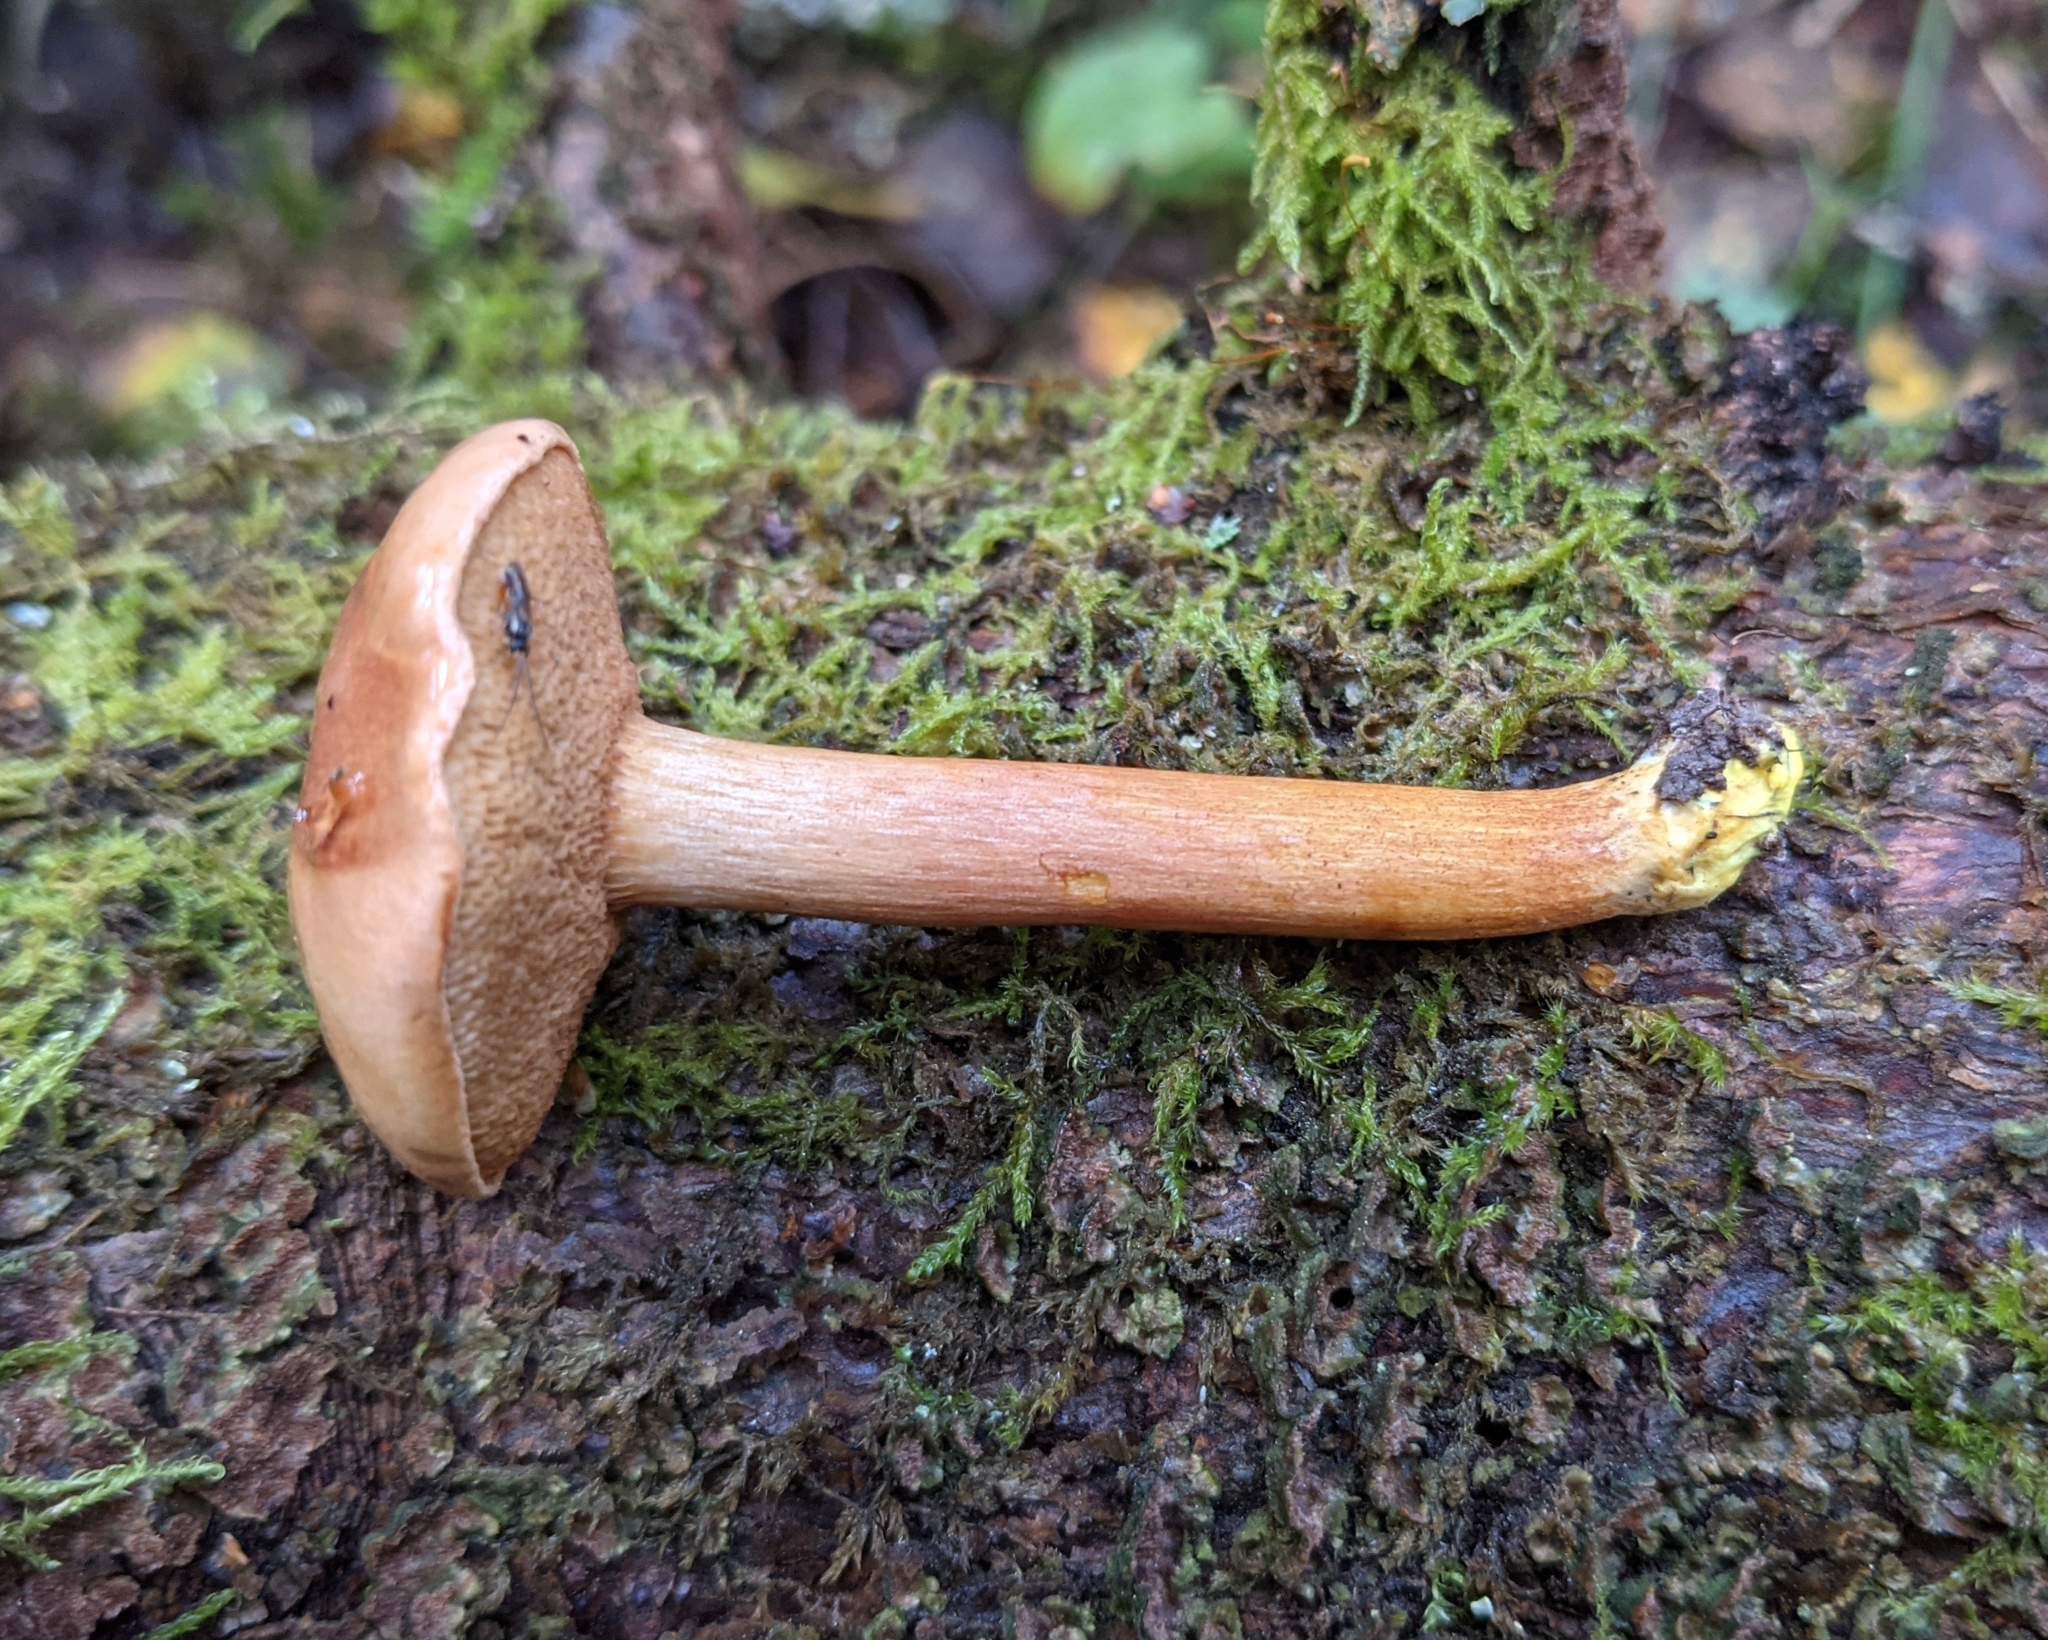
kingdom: Fungi
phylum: Basidiomycota
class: Agaricomycetes
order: Boletales
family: Boletaceae
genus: Chalciporus
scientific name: Chalciporus piperatus
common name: Peppery bolete
